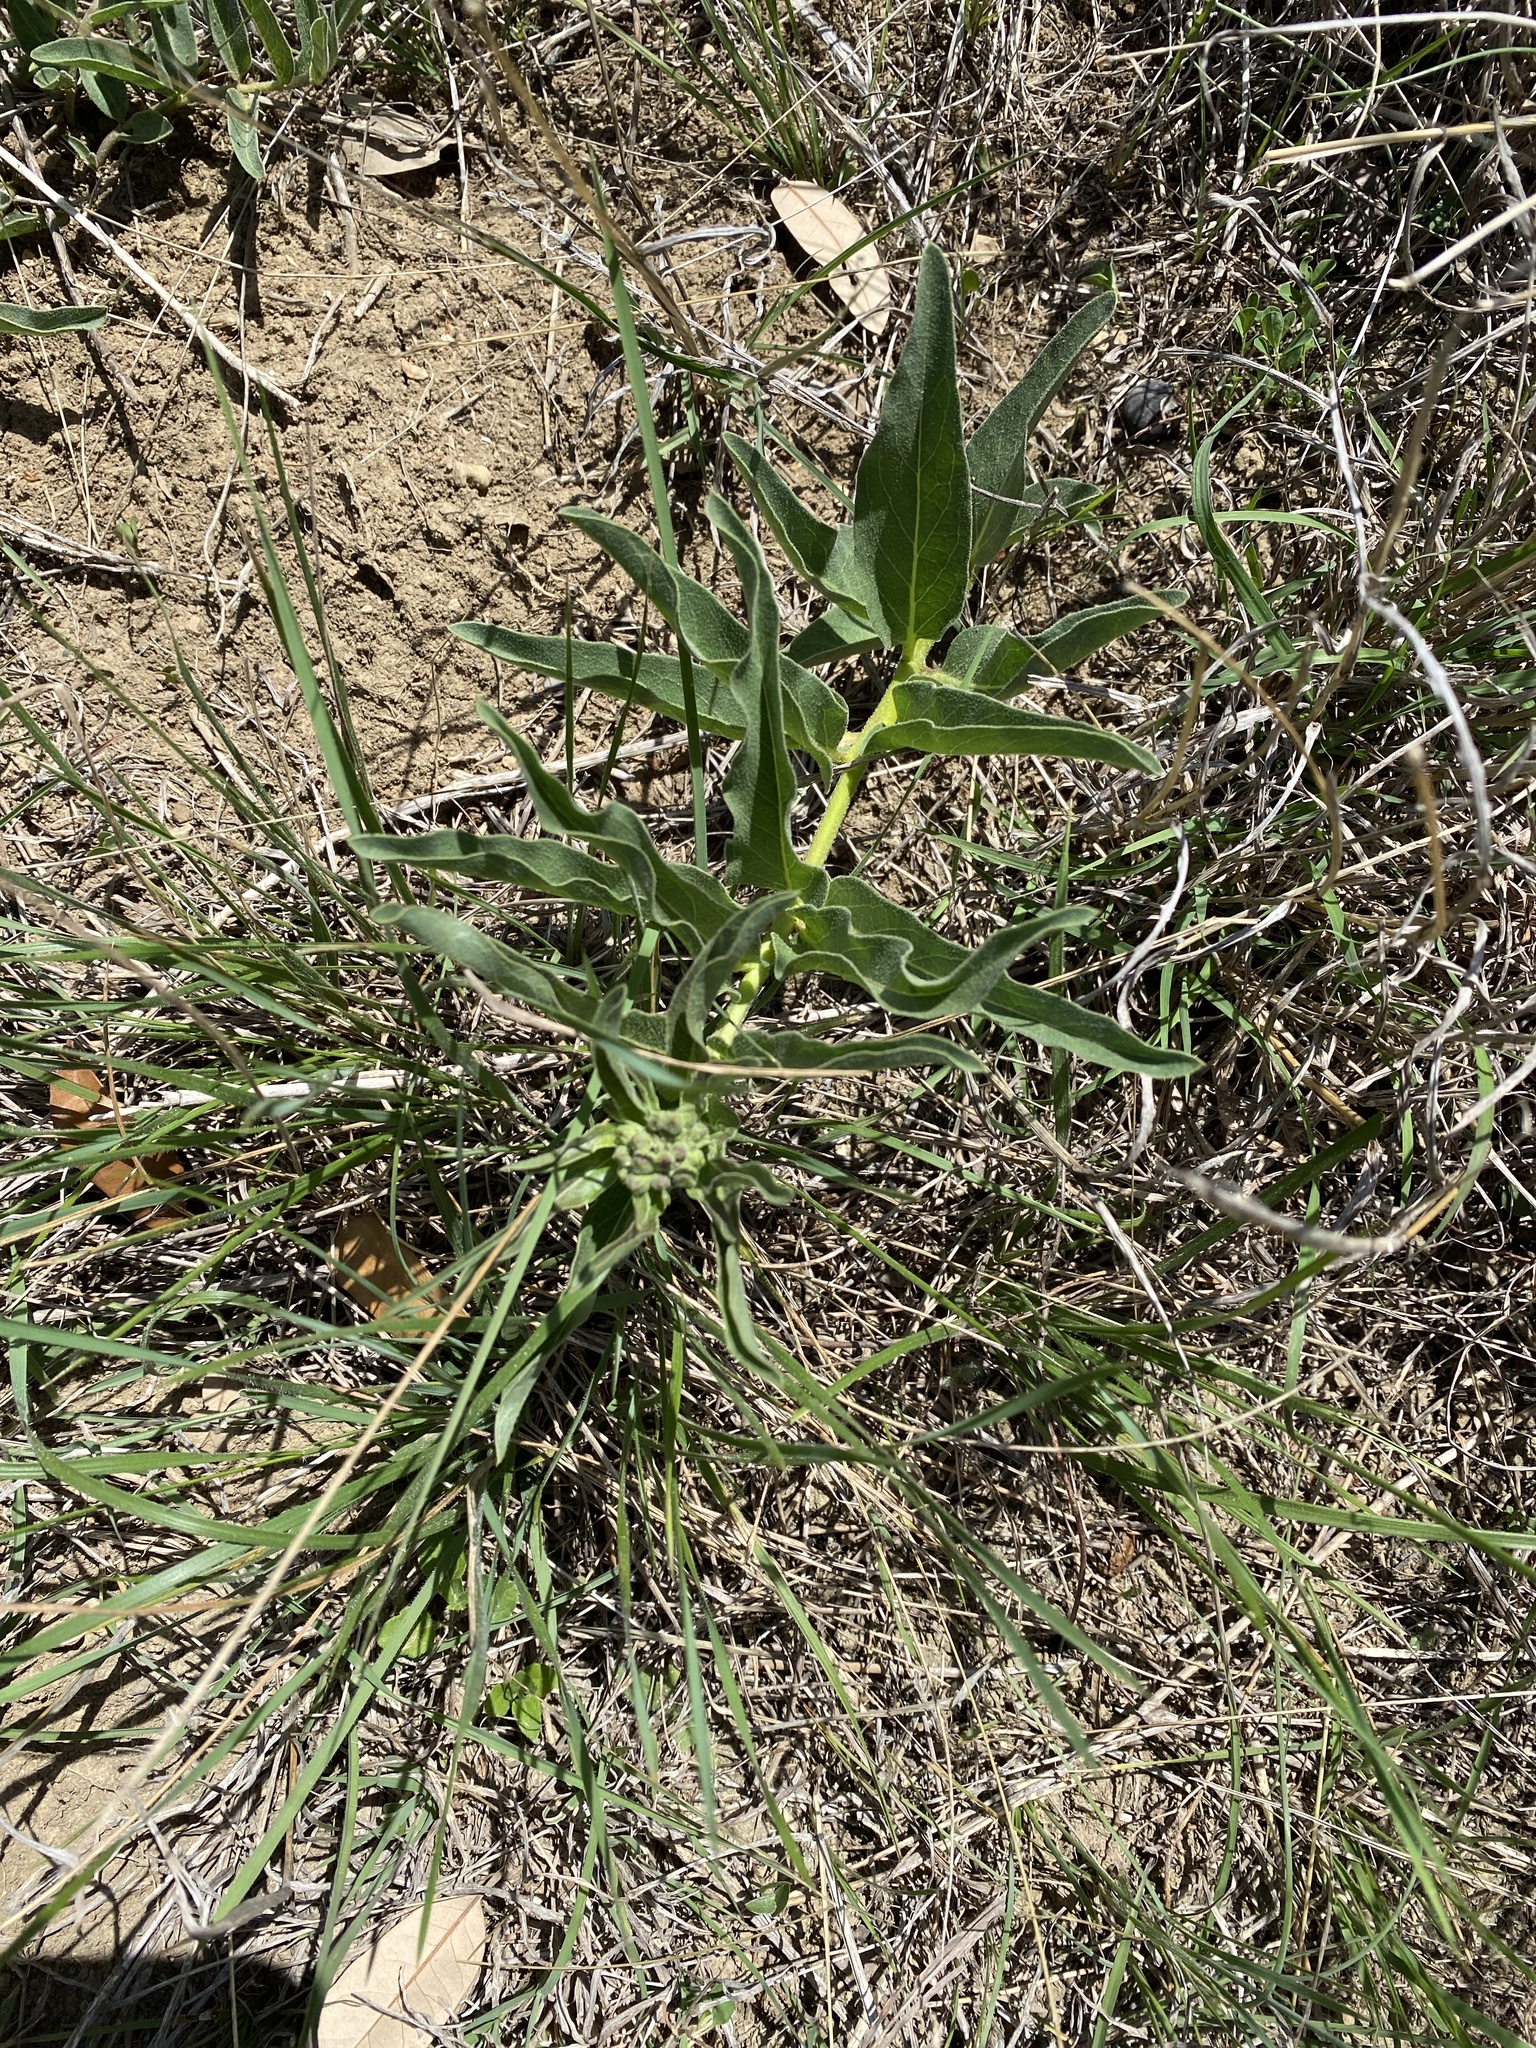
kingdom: Plantae
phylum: Tracheophyta
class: Magnoliopsida
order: Gentianales
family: Apocynaceae
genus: Asclepias
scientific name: Asclepias asperula
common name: Antelope horns
